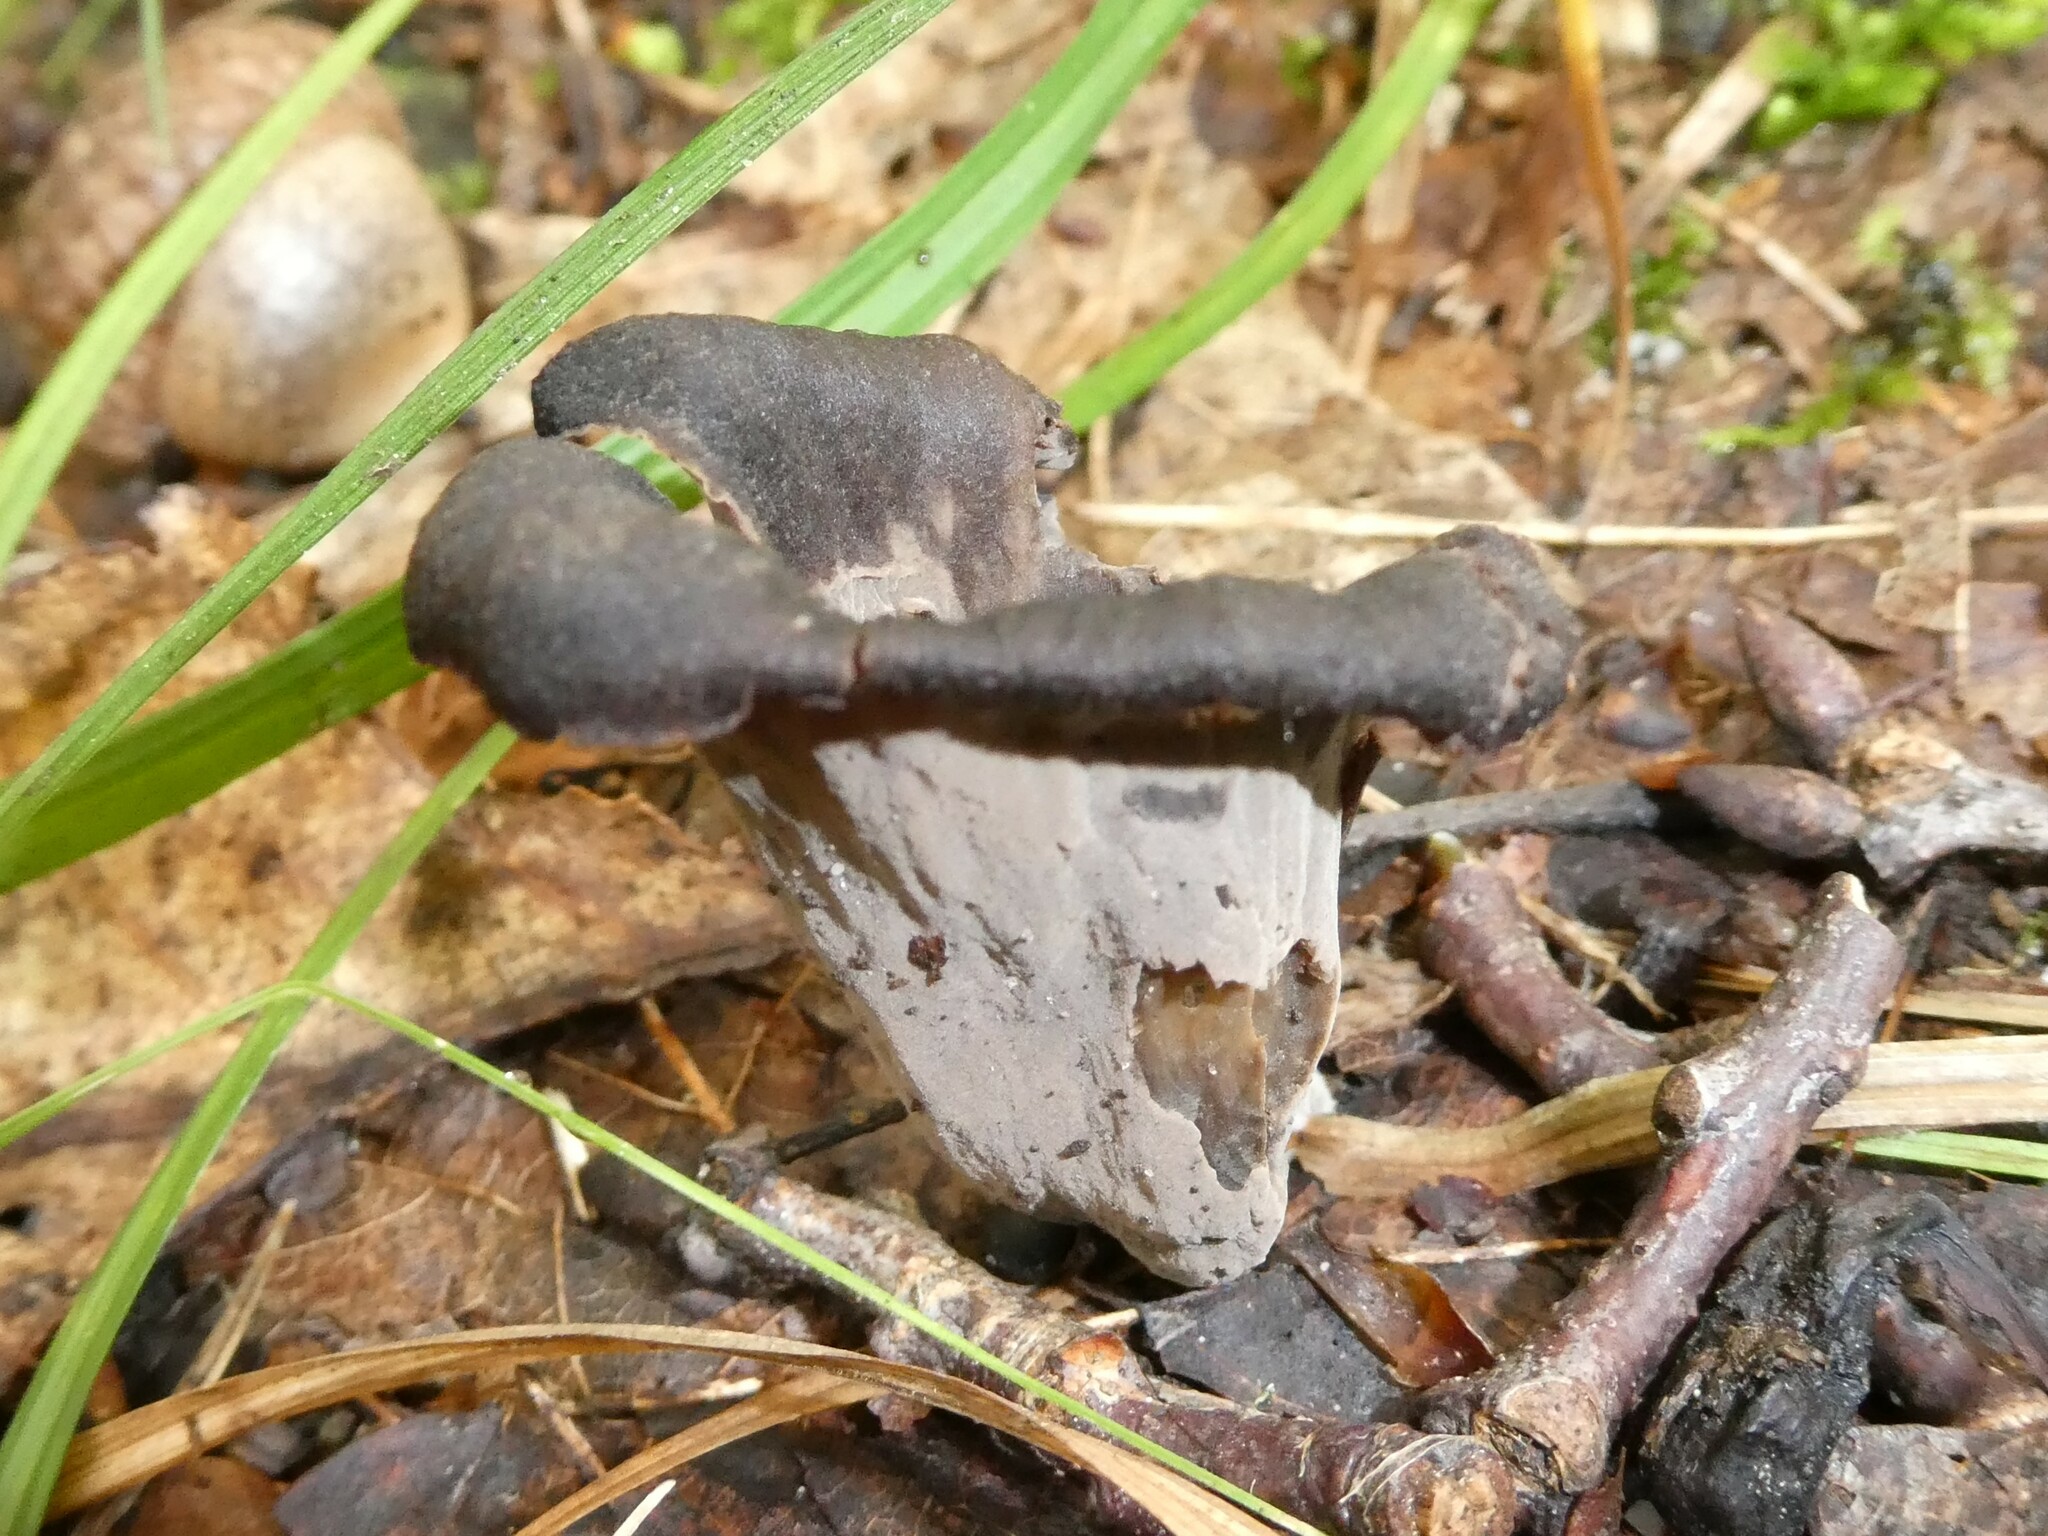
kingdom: Fungi
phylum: Basidiomycota
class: Agaricomycetes
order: Cantharellales
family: Hydnaceae
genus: Craterellus
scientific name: Craterellus cornucopioides
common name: Horn of plenty
